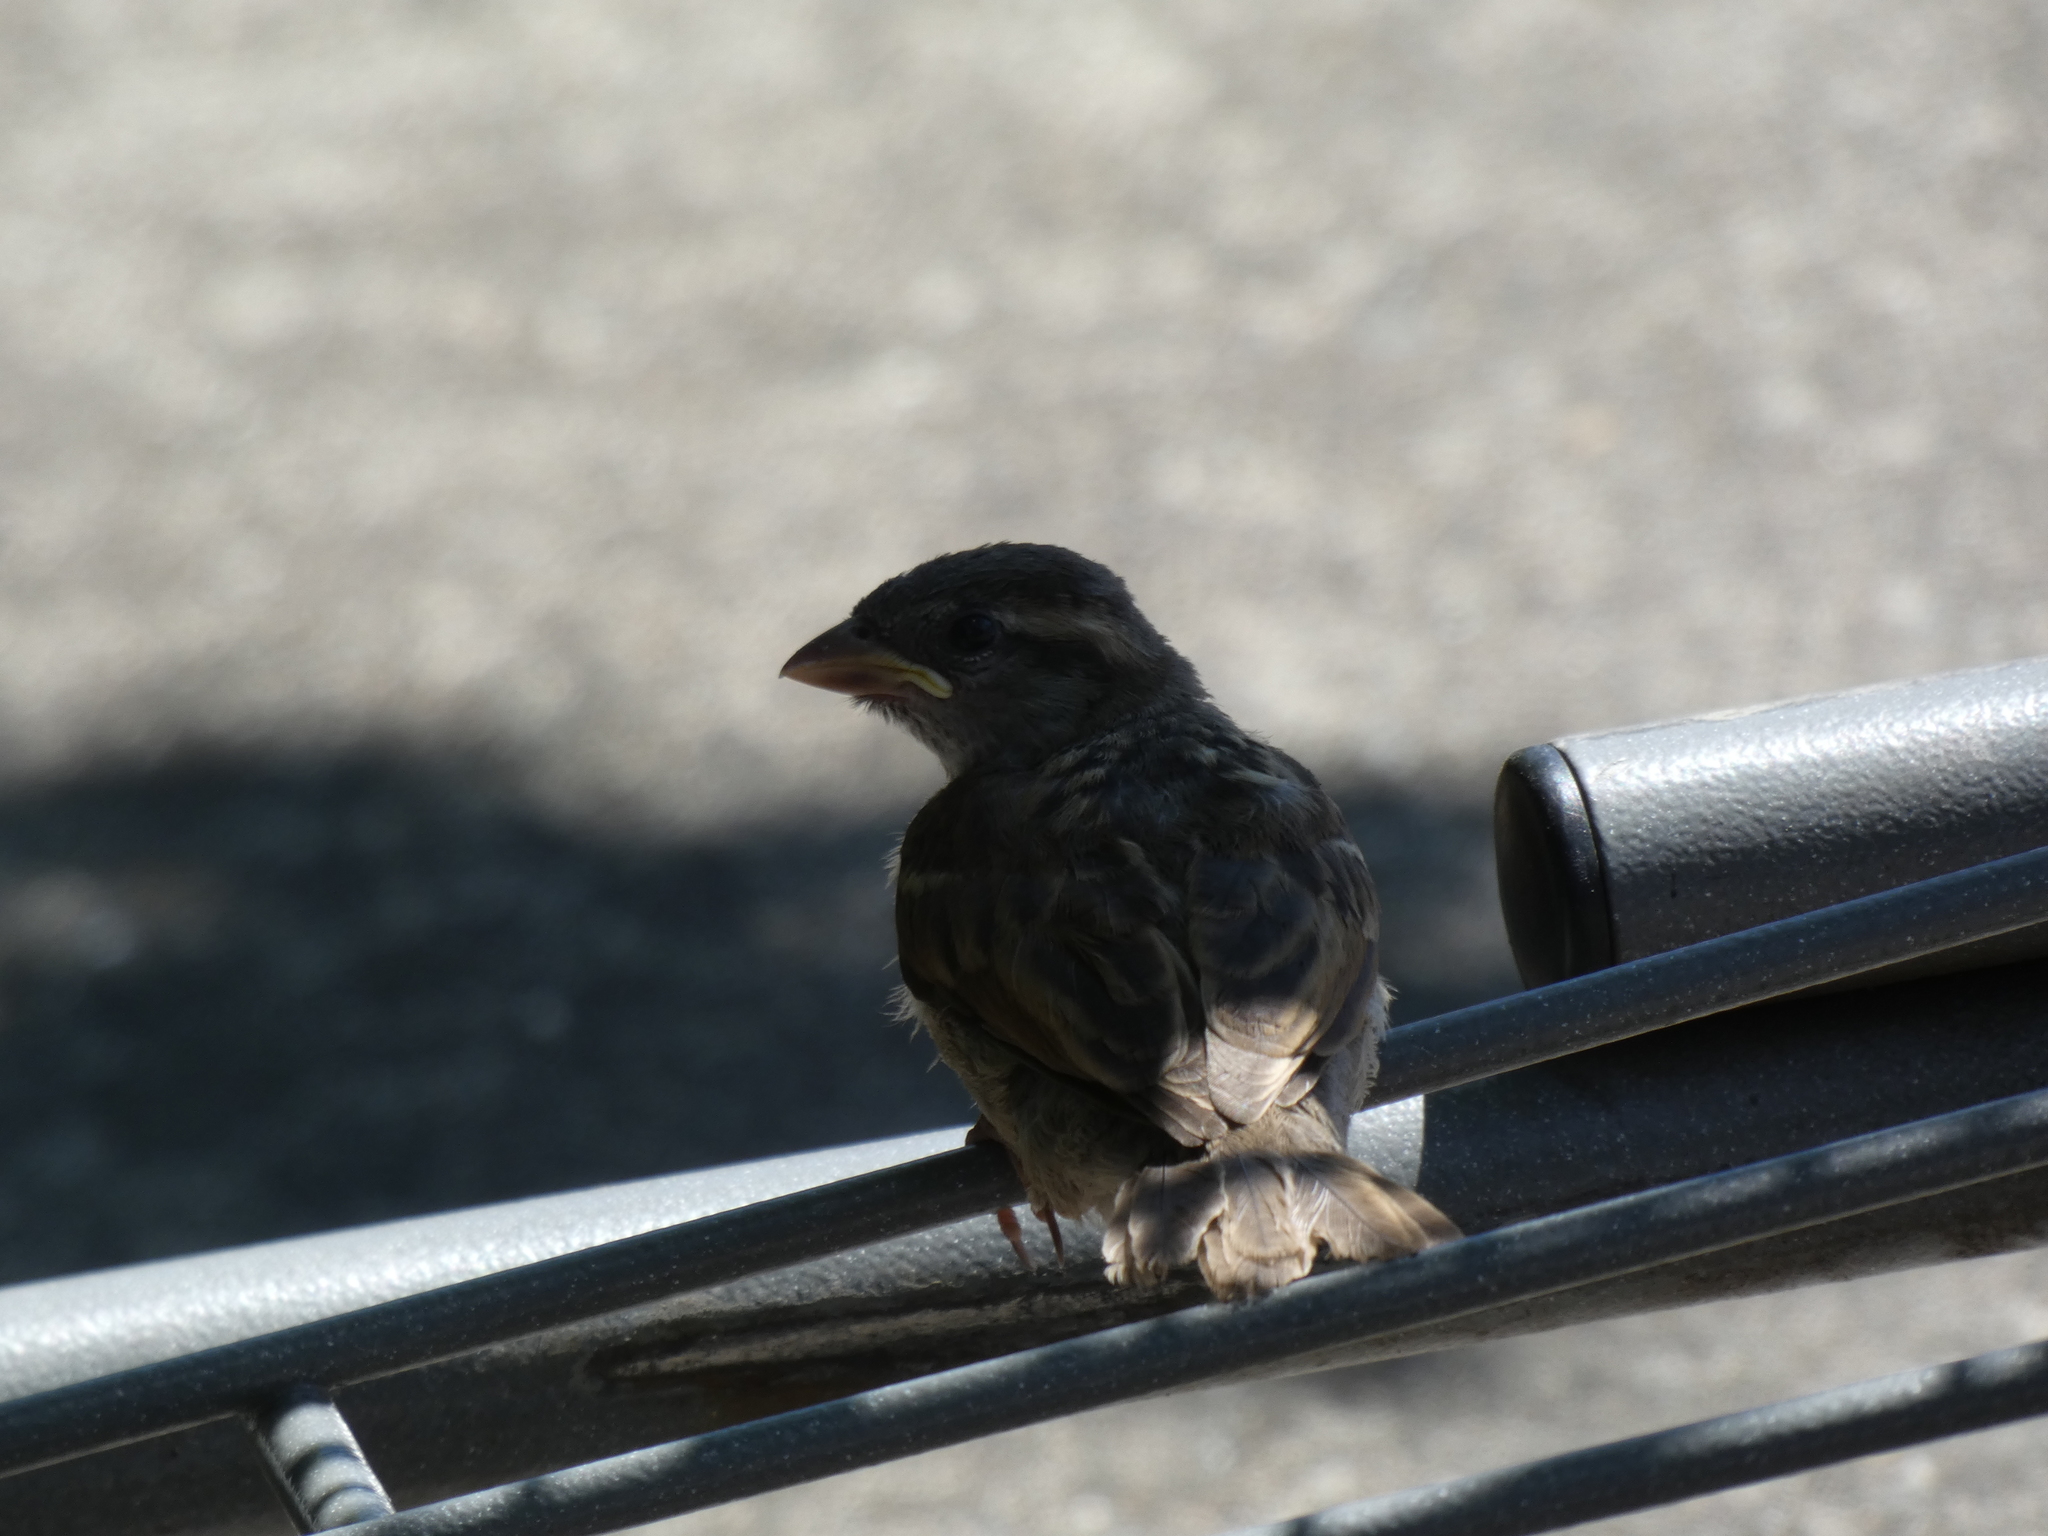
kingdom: Animalia
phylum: Chordata
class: Aves
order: Passeriformes
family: Passeridae
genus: Passer
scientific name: Passer domesticus
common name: House sparrow
